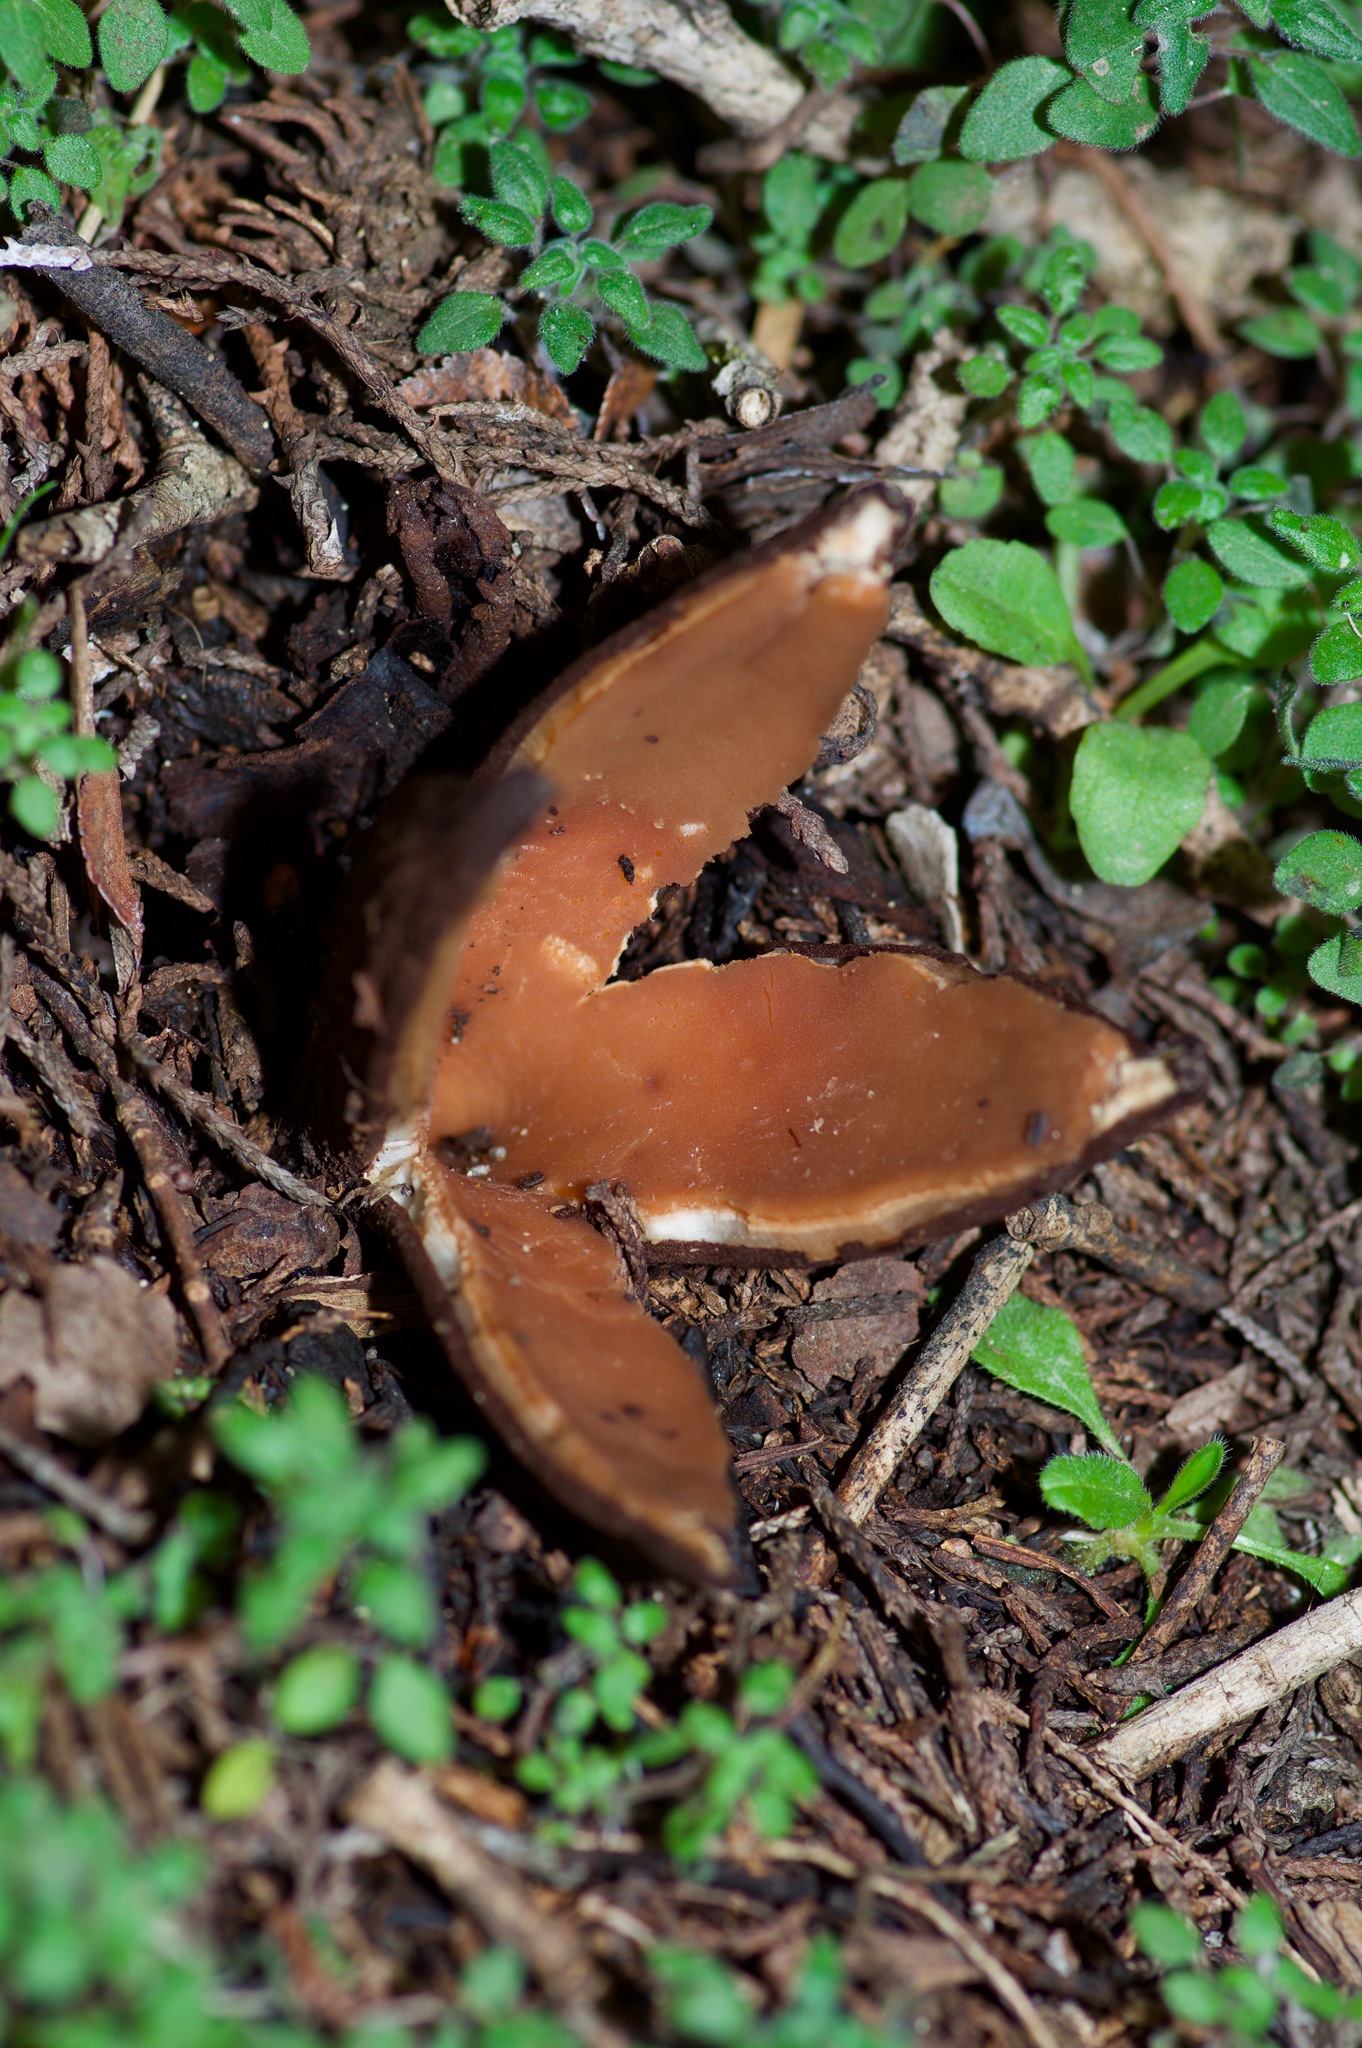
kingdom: Fungi
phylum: Ascomycota
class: Pezizomycetes
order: Pezizales
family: Chorioactidaceae
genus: Chorioactis
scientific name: Chorioactis geaster
